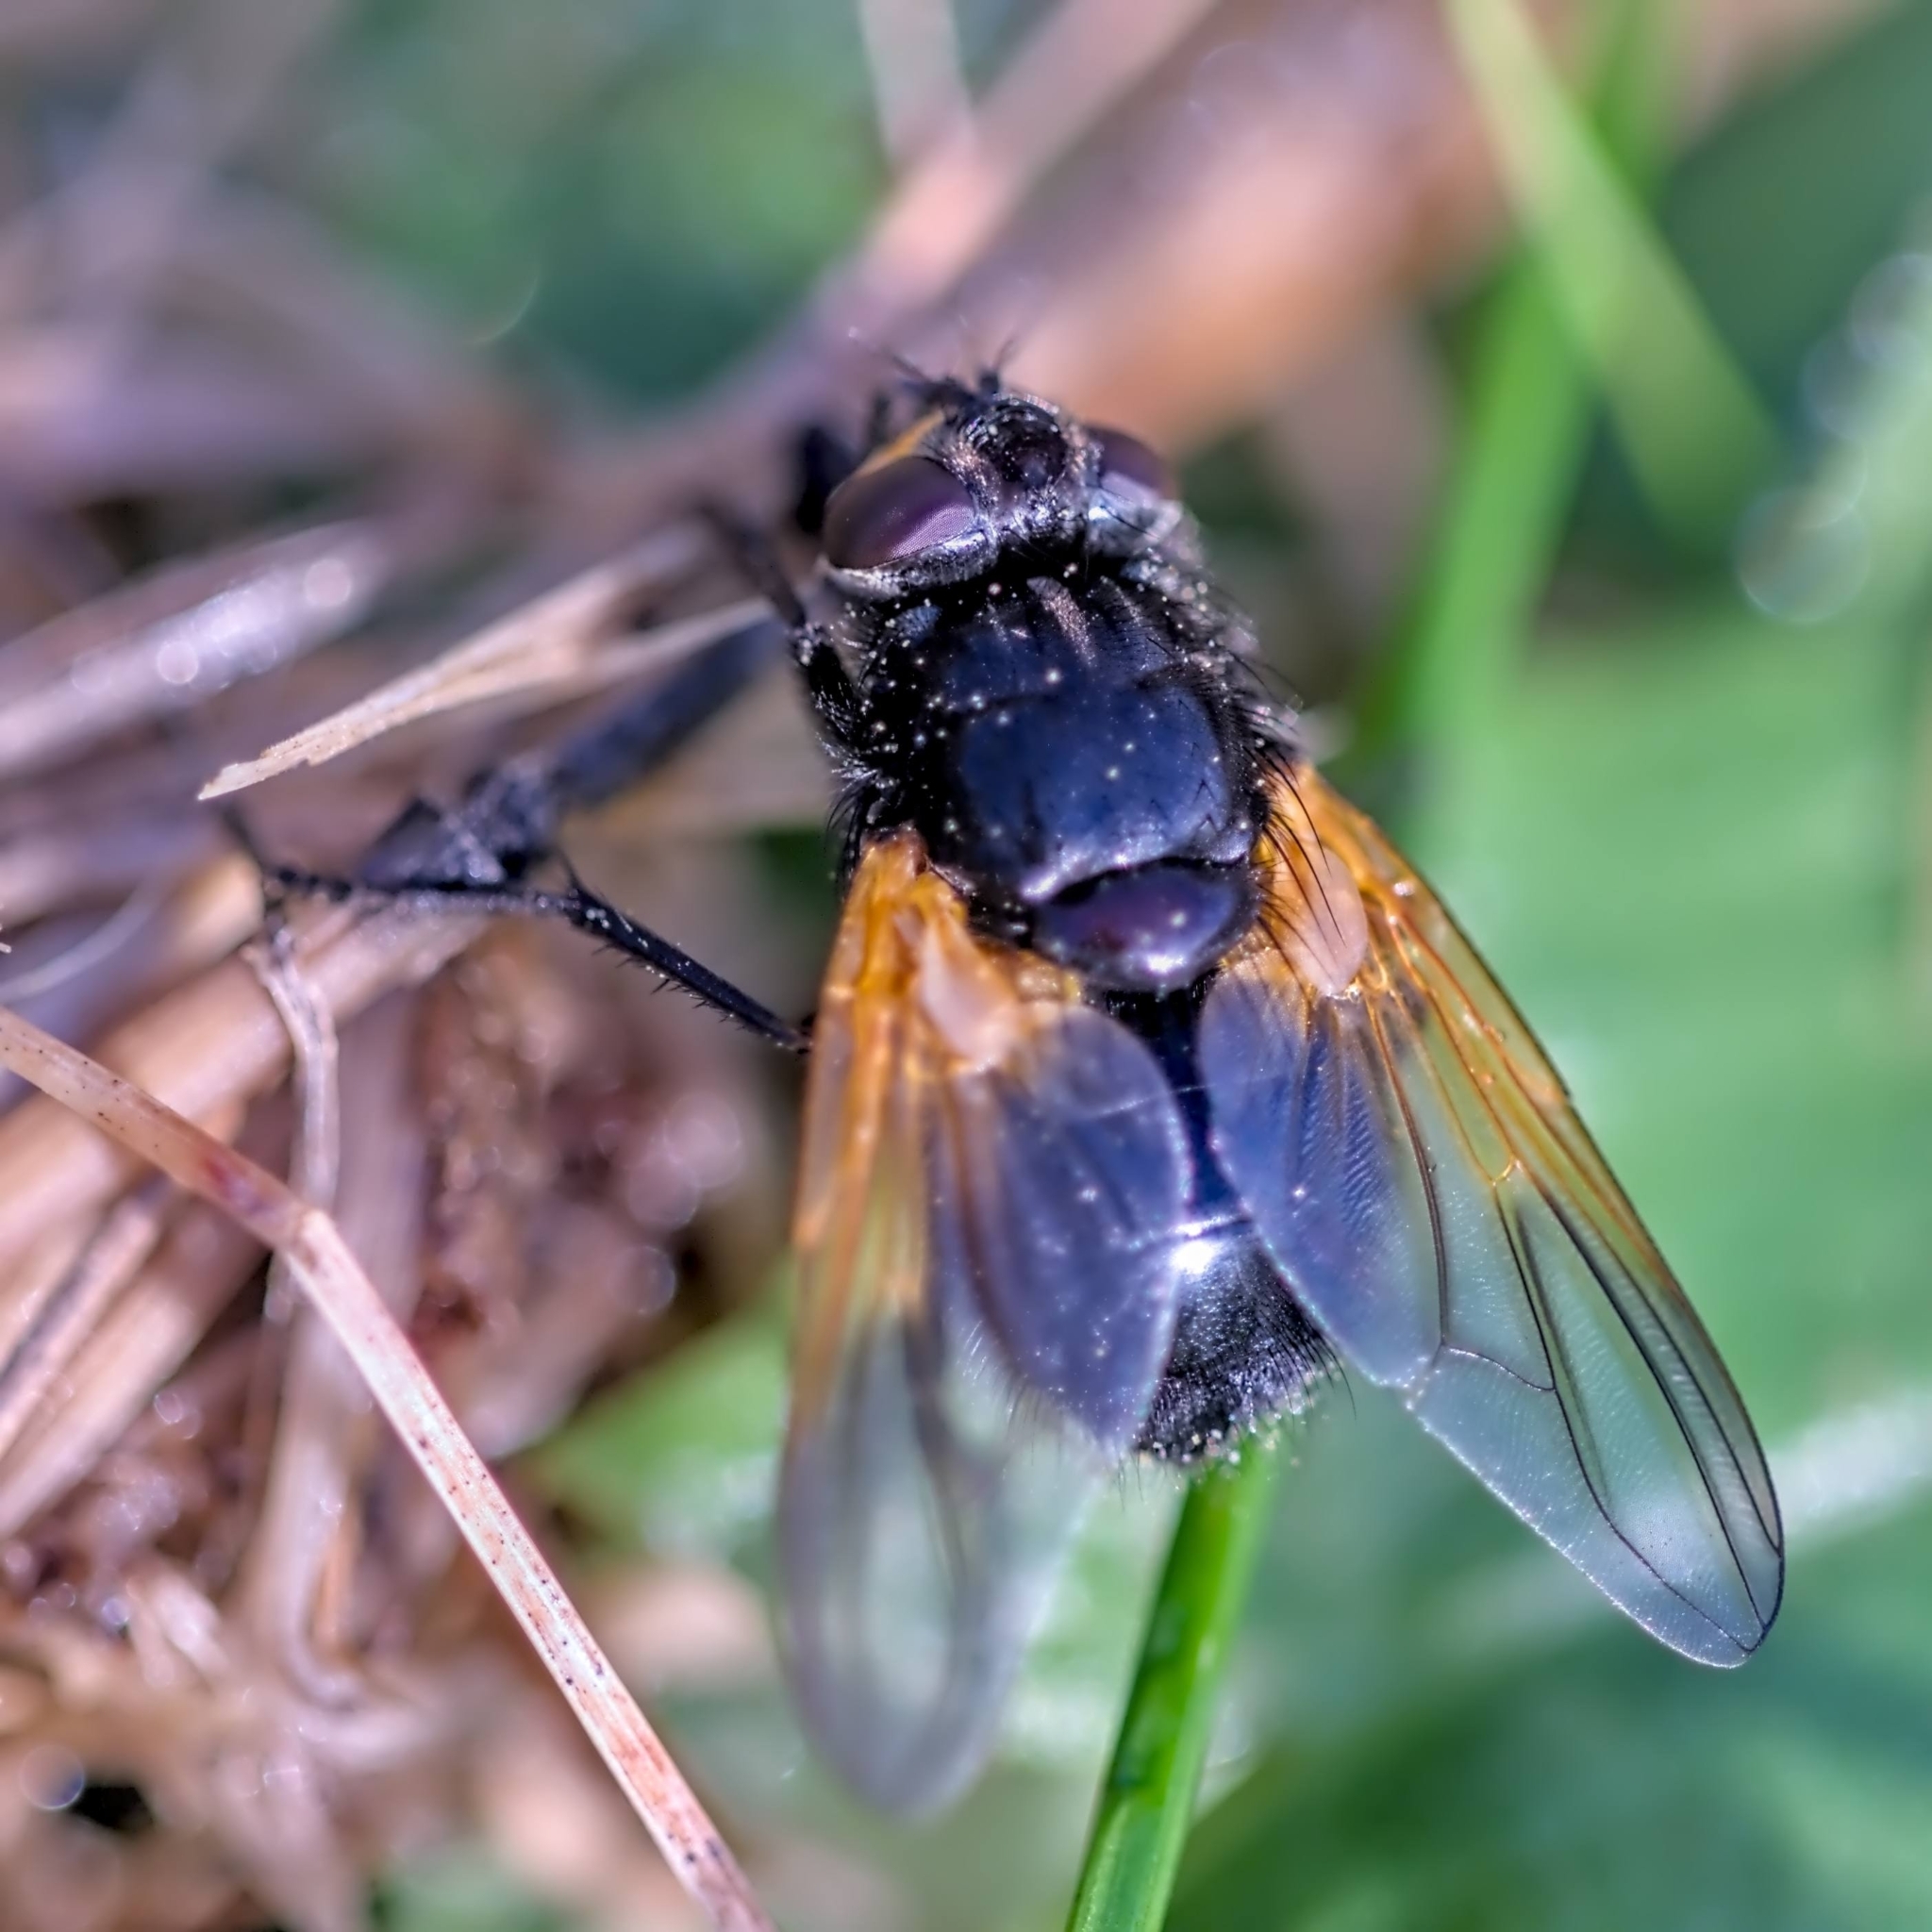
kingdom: Animalia
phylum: Arthropoda
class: Insecta
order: Diptera
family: Muscidae
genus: Mesembrina
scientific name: Mesembrina meridiana
